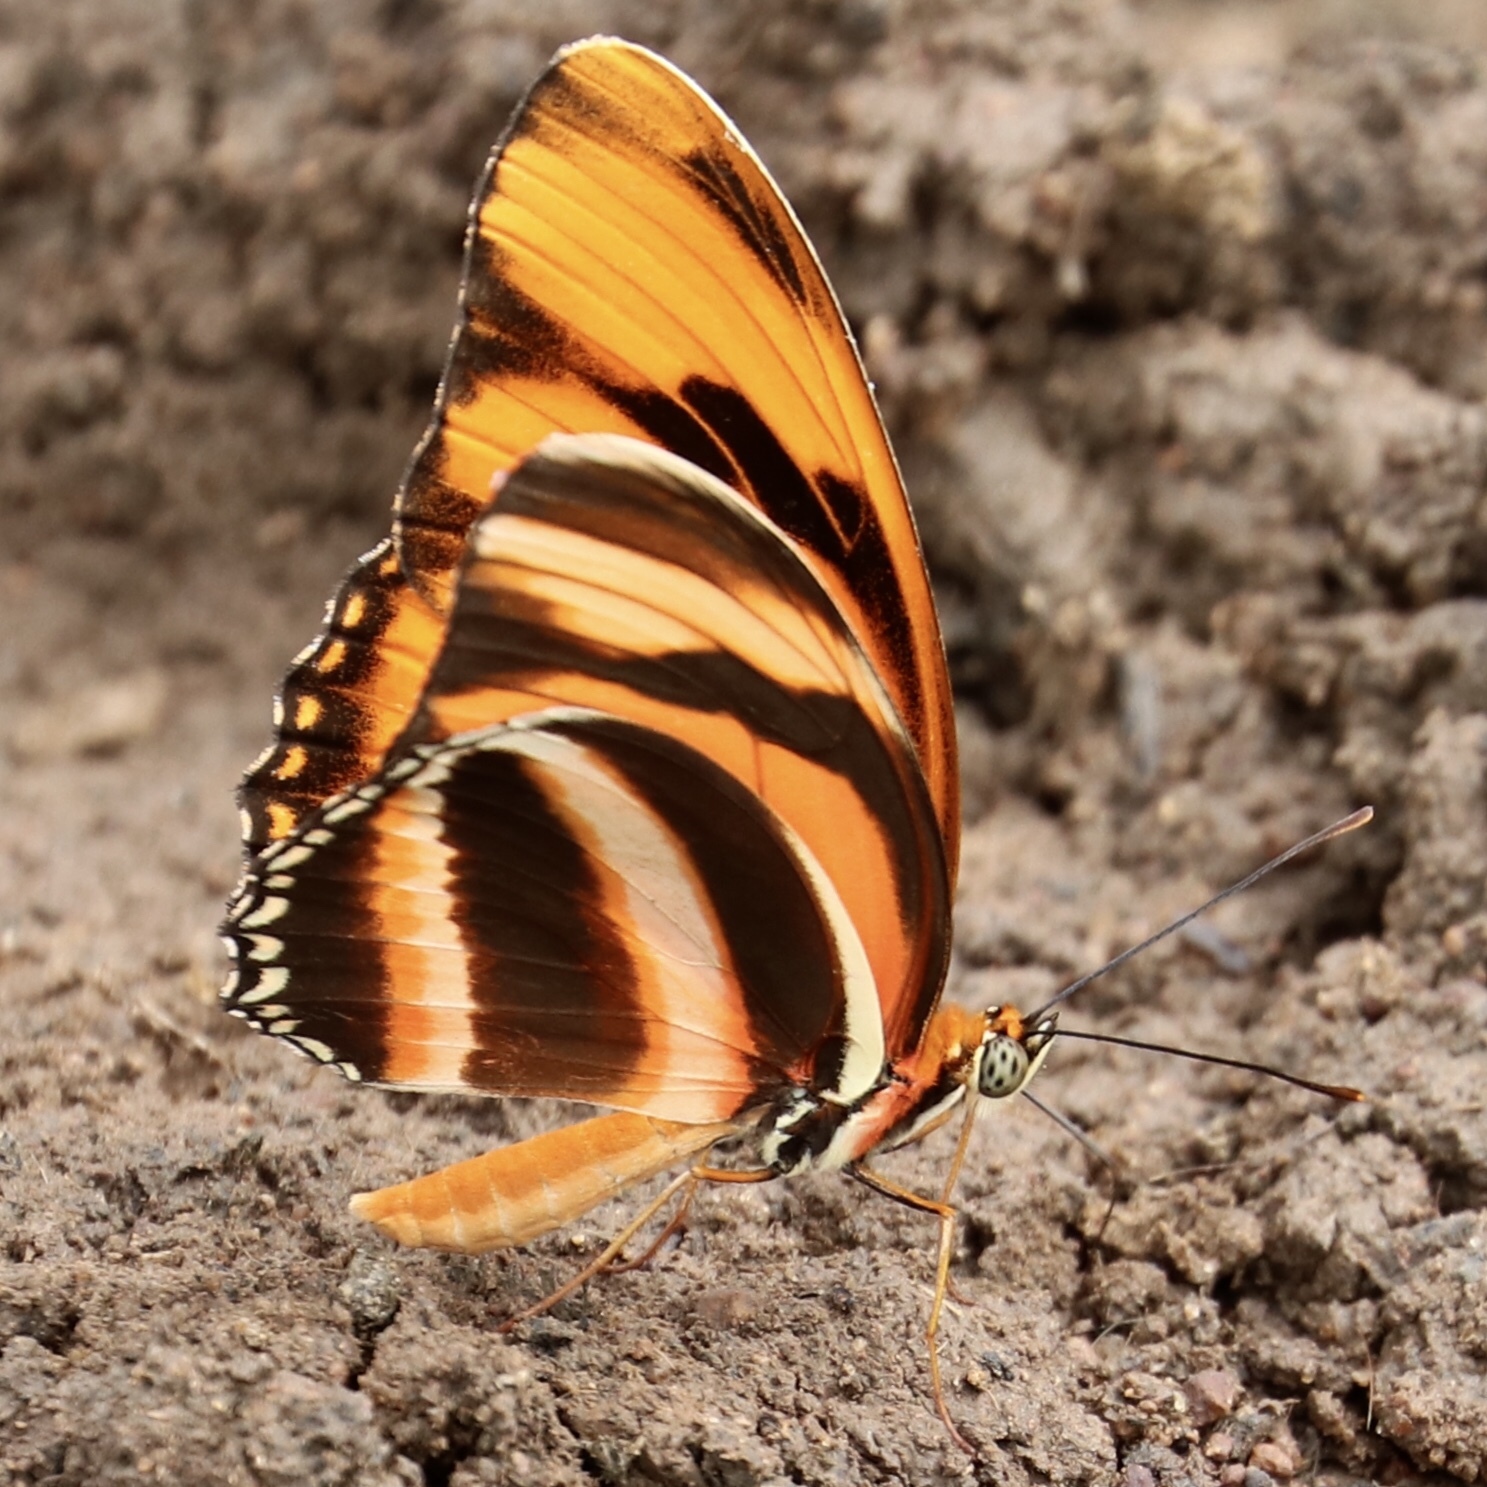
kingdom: Animalia
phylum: Arthropoda
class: Insecta
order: Lepidoptera
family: Nymphalidae
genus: Dryadula
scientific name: Dryadula phaetusa
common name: Banded orange heliconian
